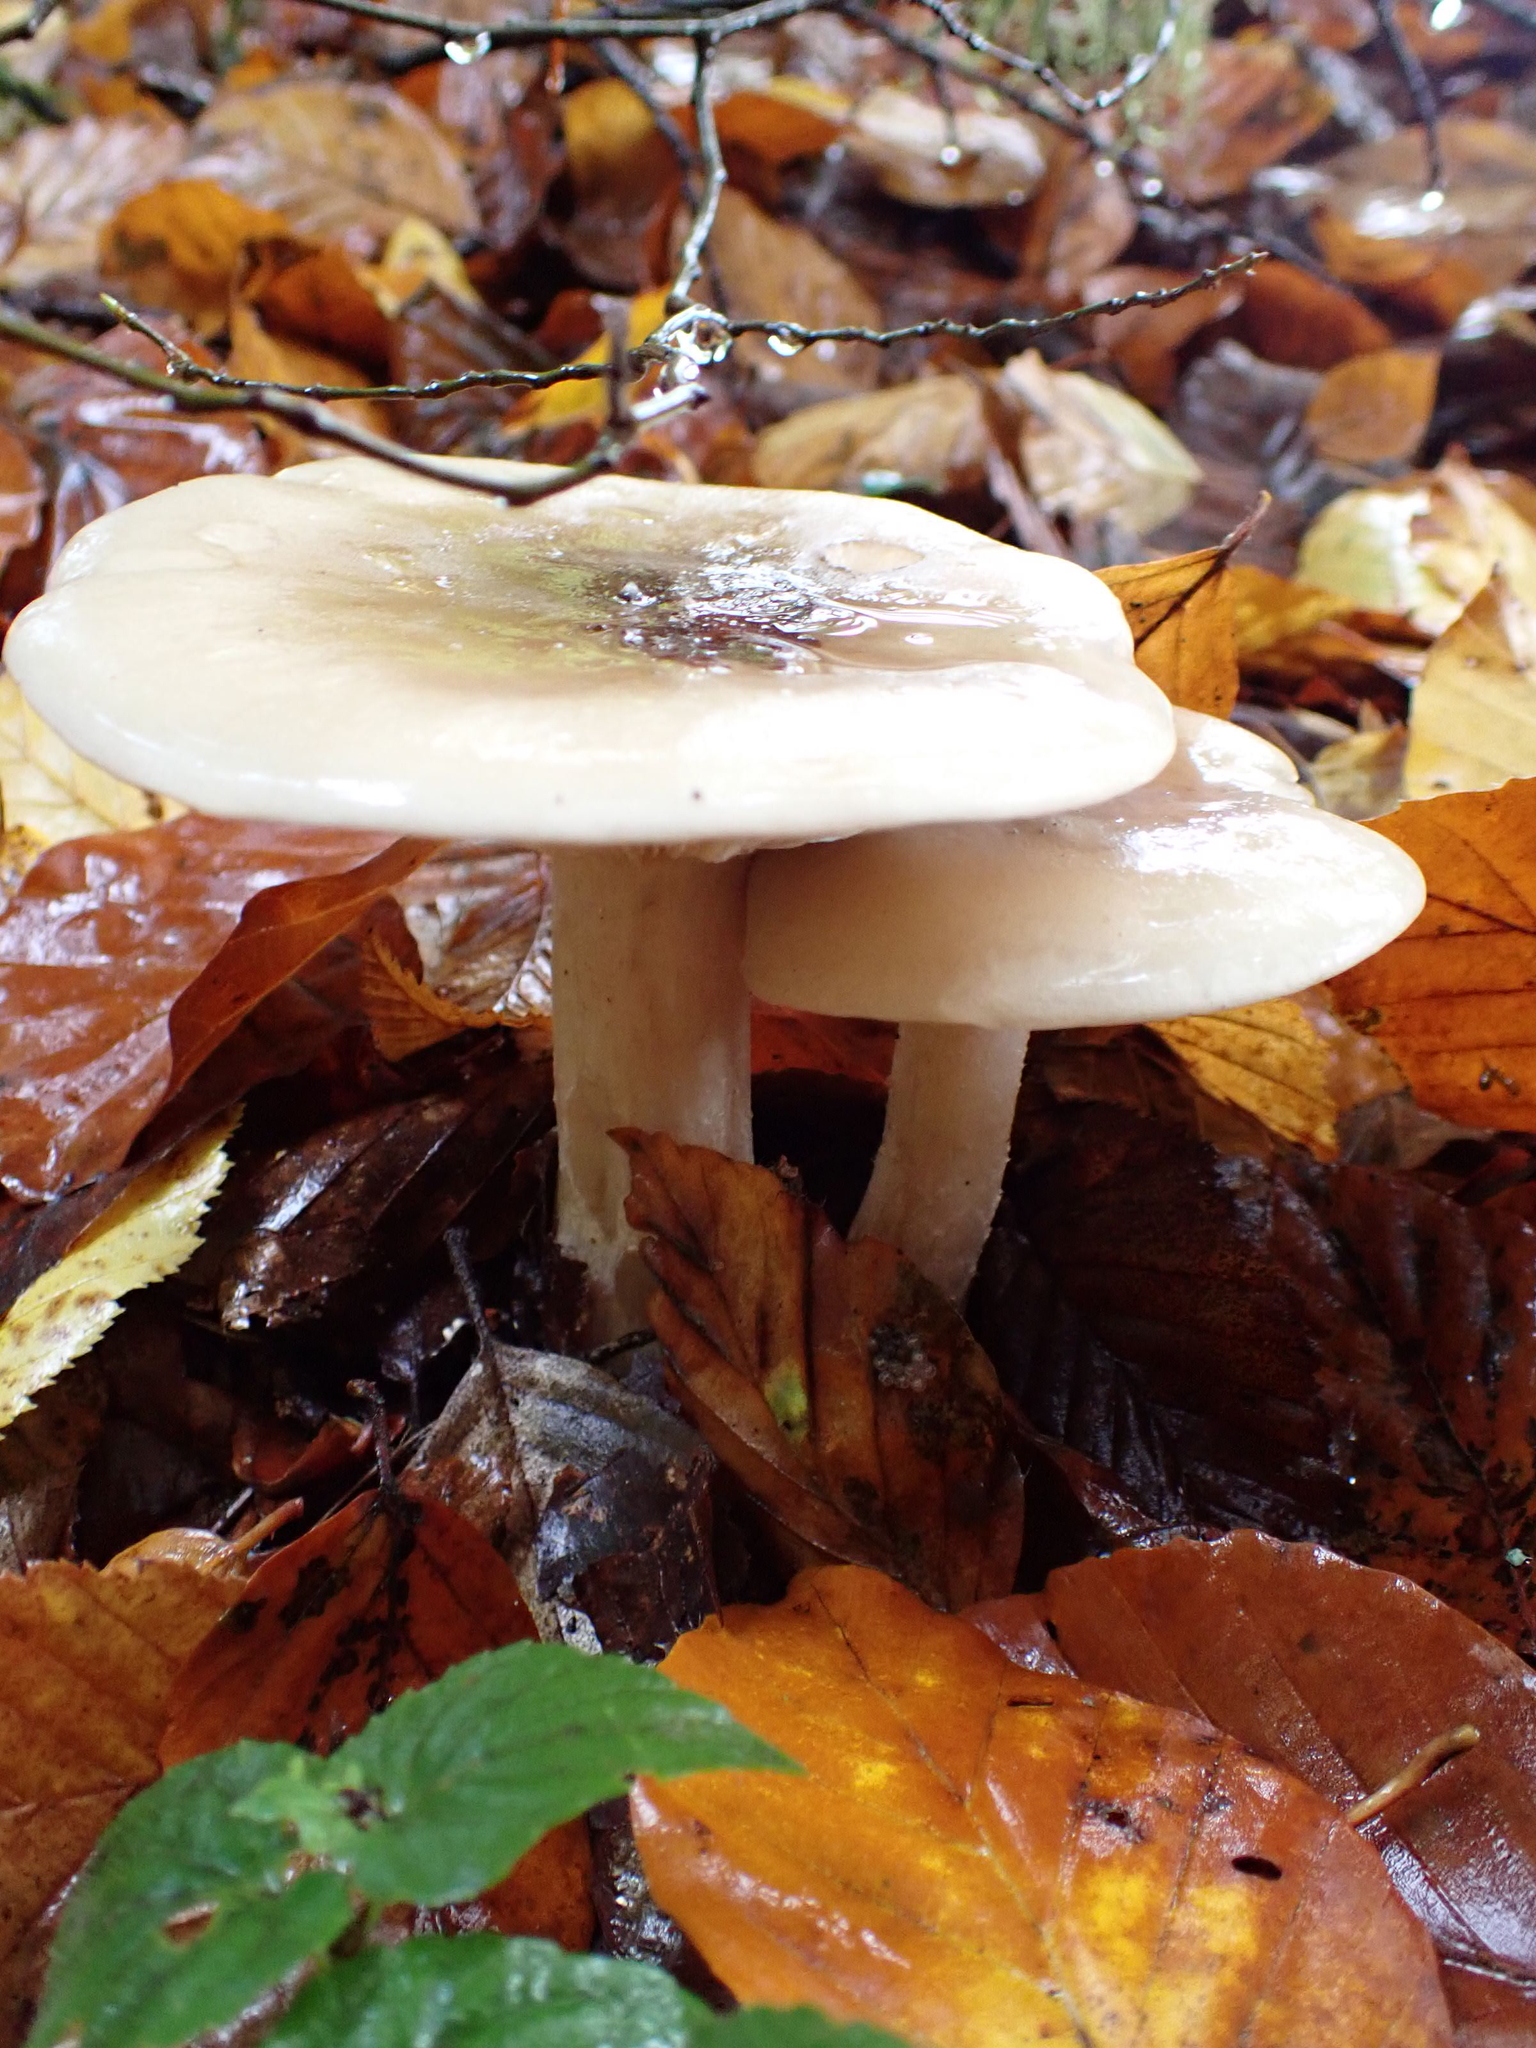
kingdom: Fungi
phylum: Basidiomycota
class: Agaricomycetes
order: Agaricales
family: Tricholomataceae
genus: Clitocybe
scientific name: Clitocybe nebularis
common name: Clouded agaric
